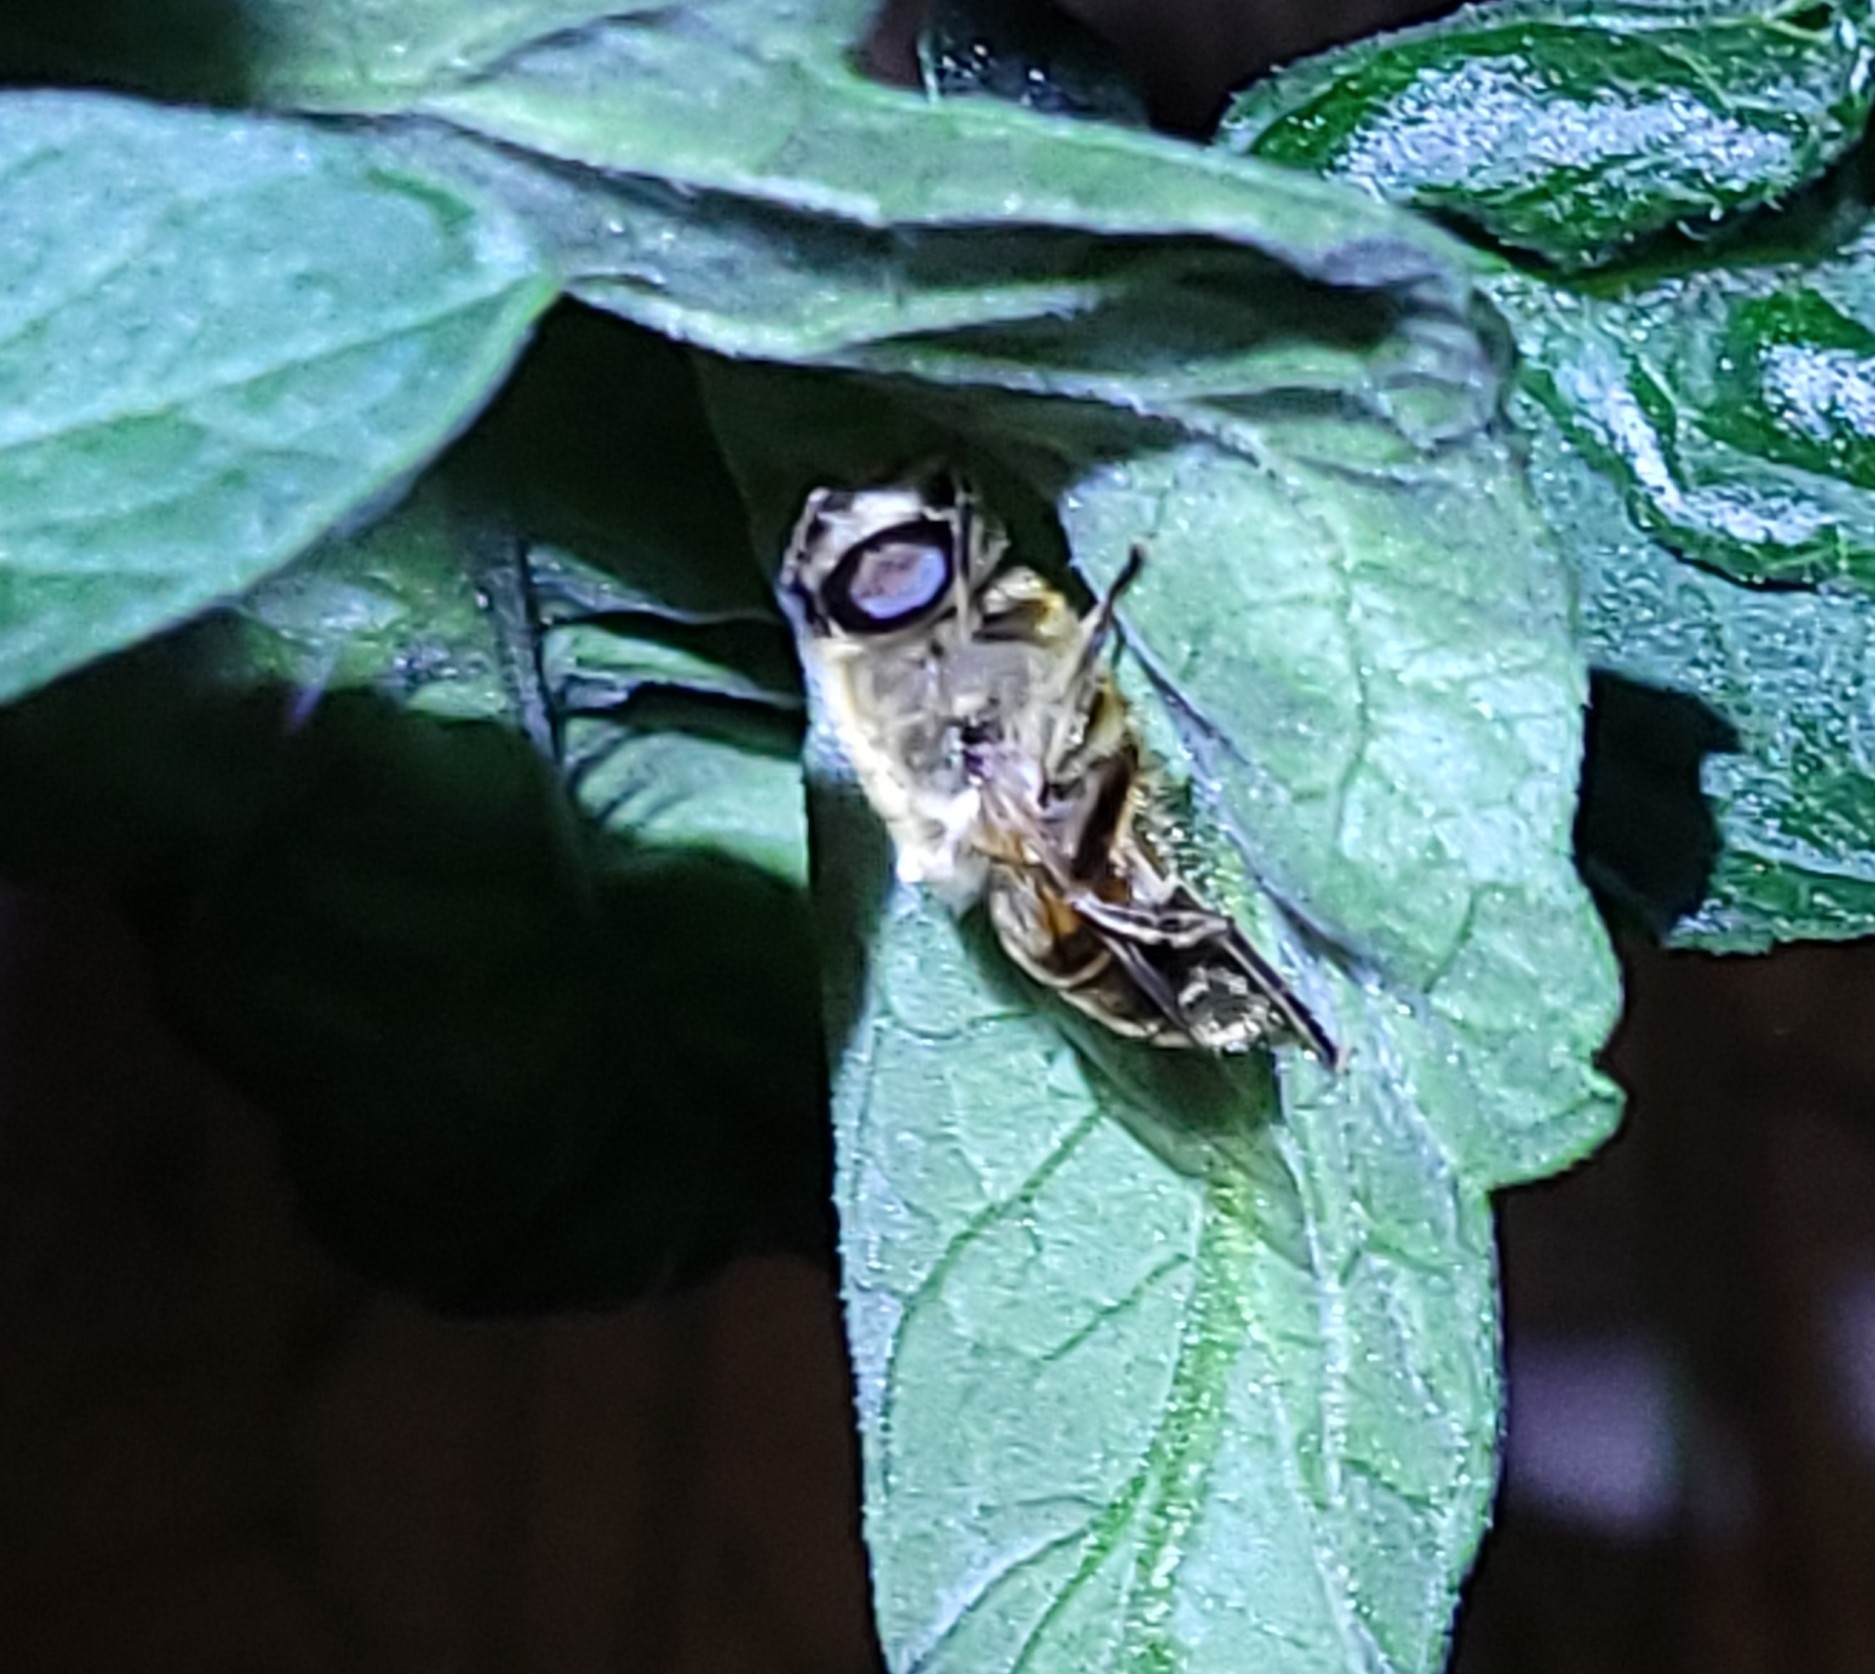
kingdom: Animalia
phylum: Arthropoda
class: Insecta
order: Diptera
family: Syrphidae
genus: Eristalis
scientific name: Eristalis tenax
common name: Drone fly
